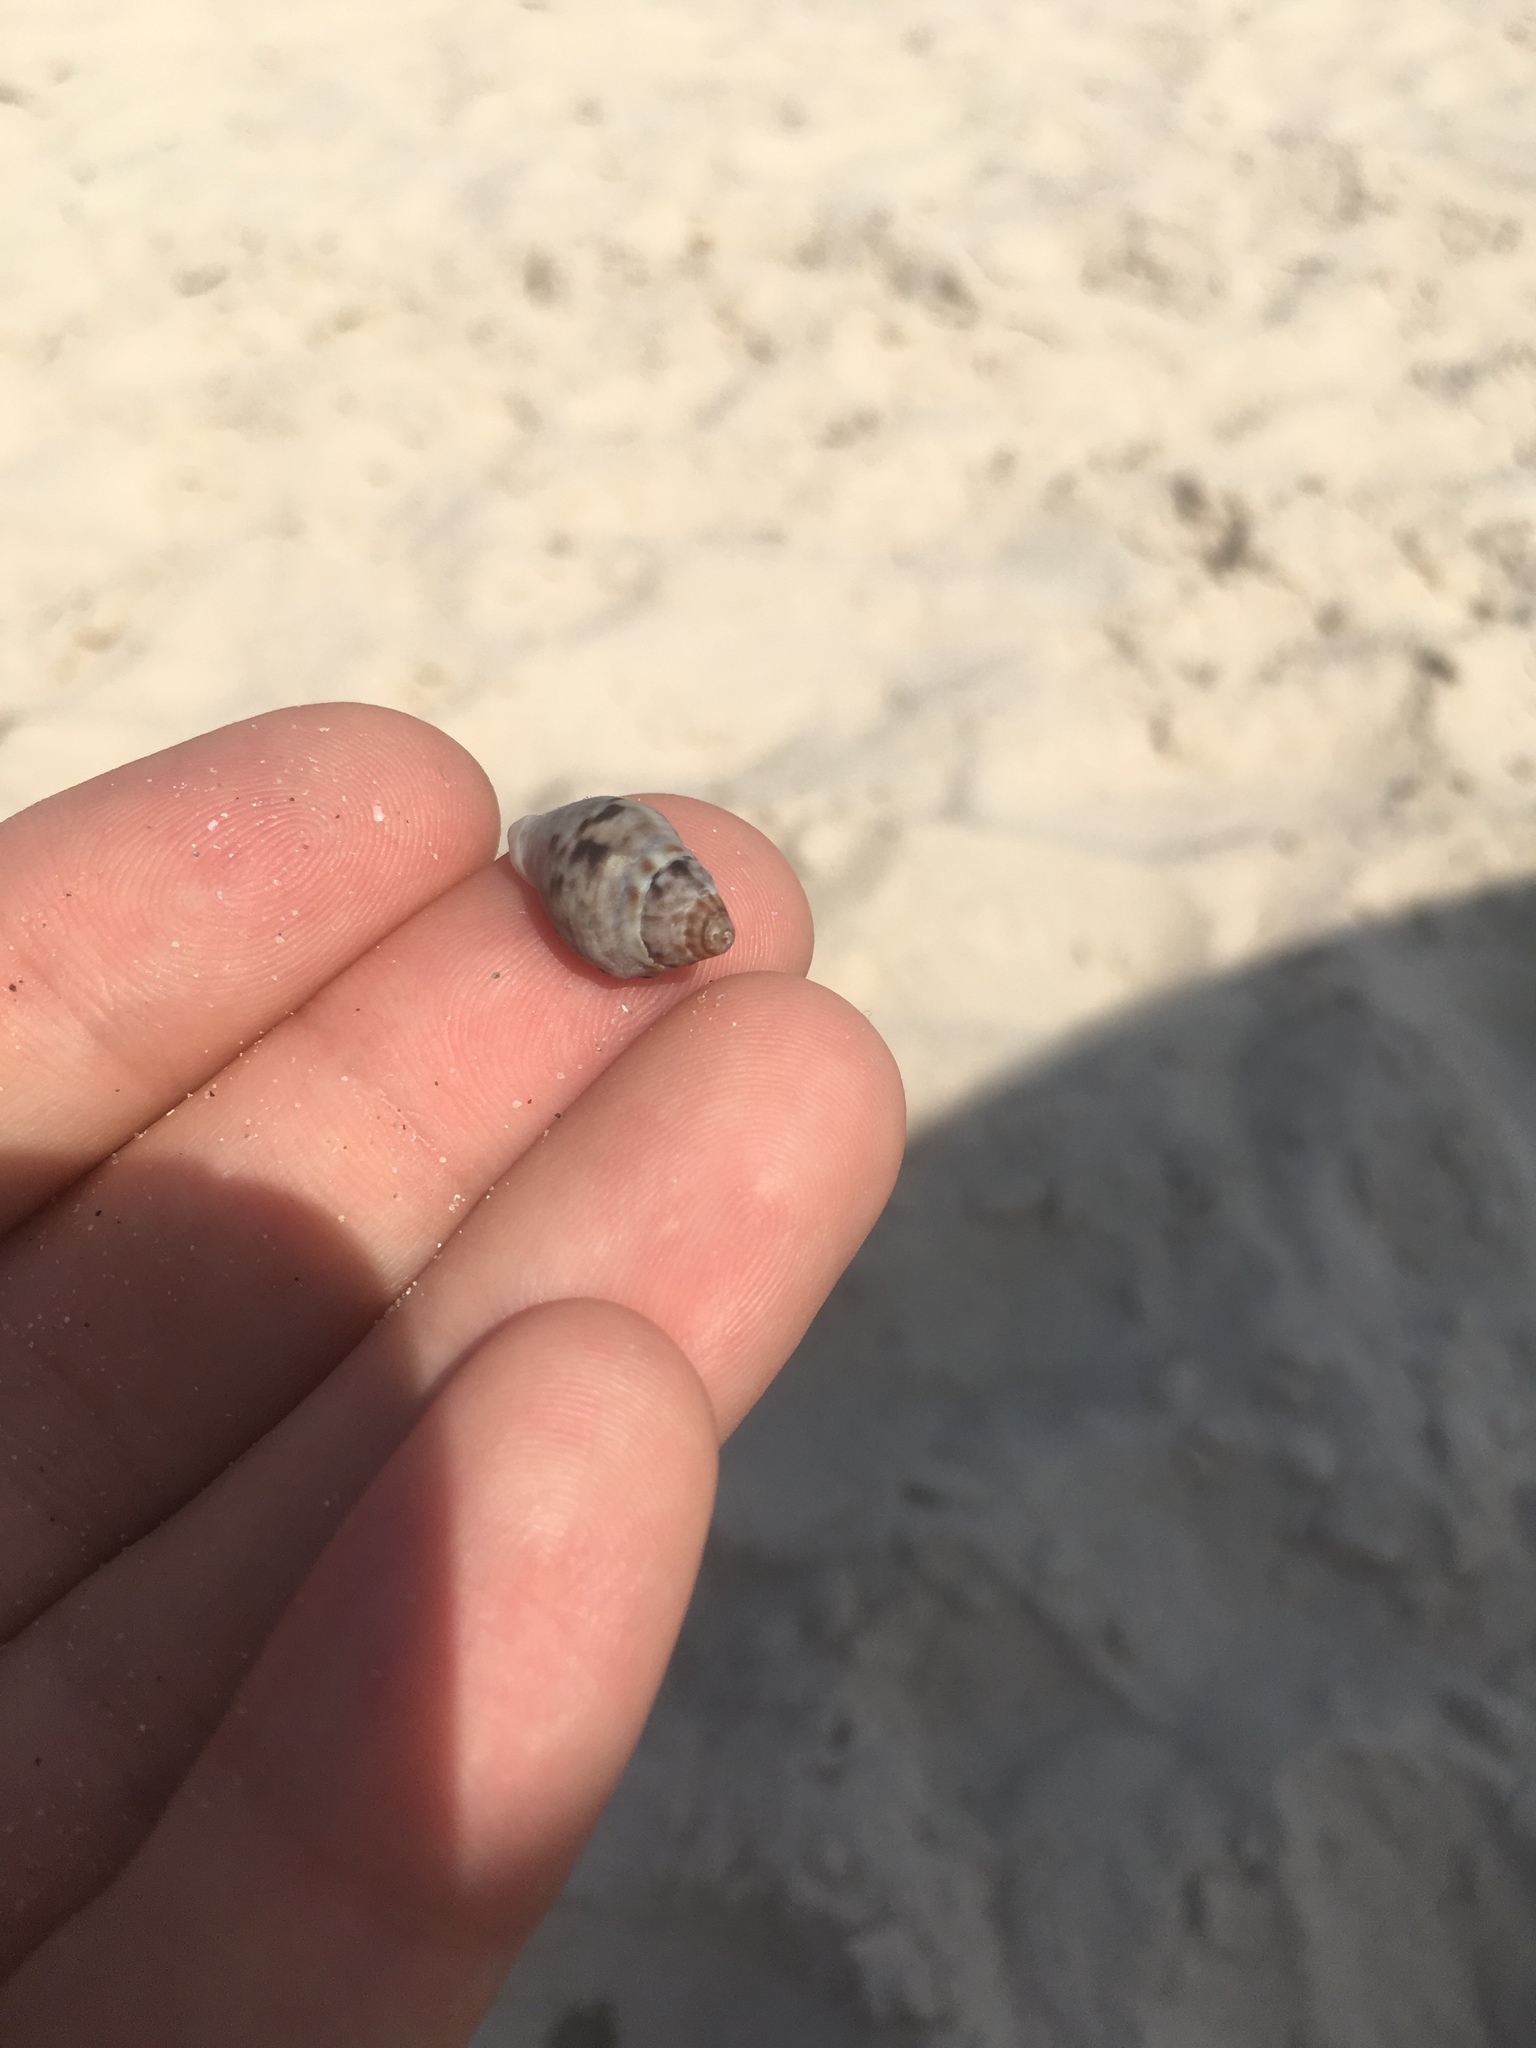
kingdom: Animalia
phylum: Mollusca
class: Gastropoda
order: Neogastropoda
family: Cominellidae
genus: Cominella
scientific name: Cominella lineolata
